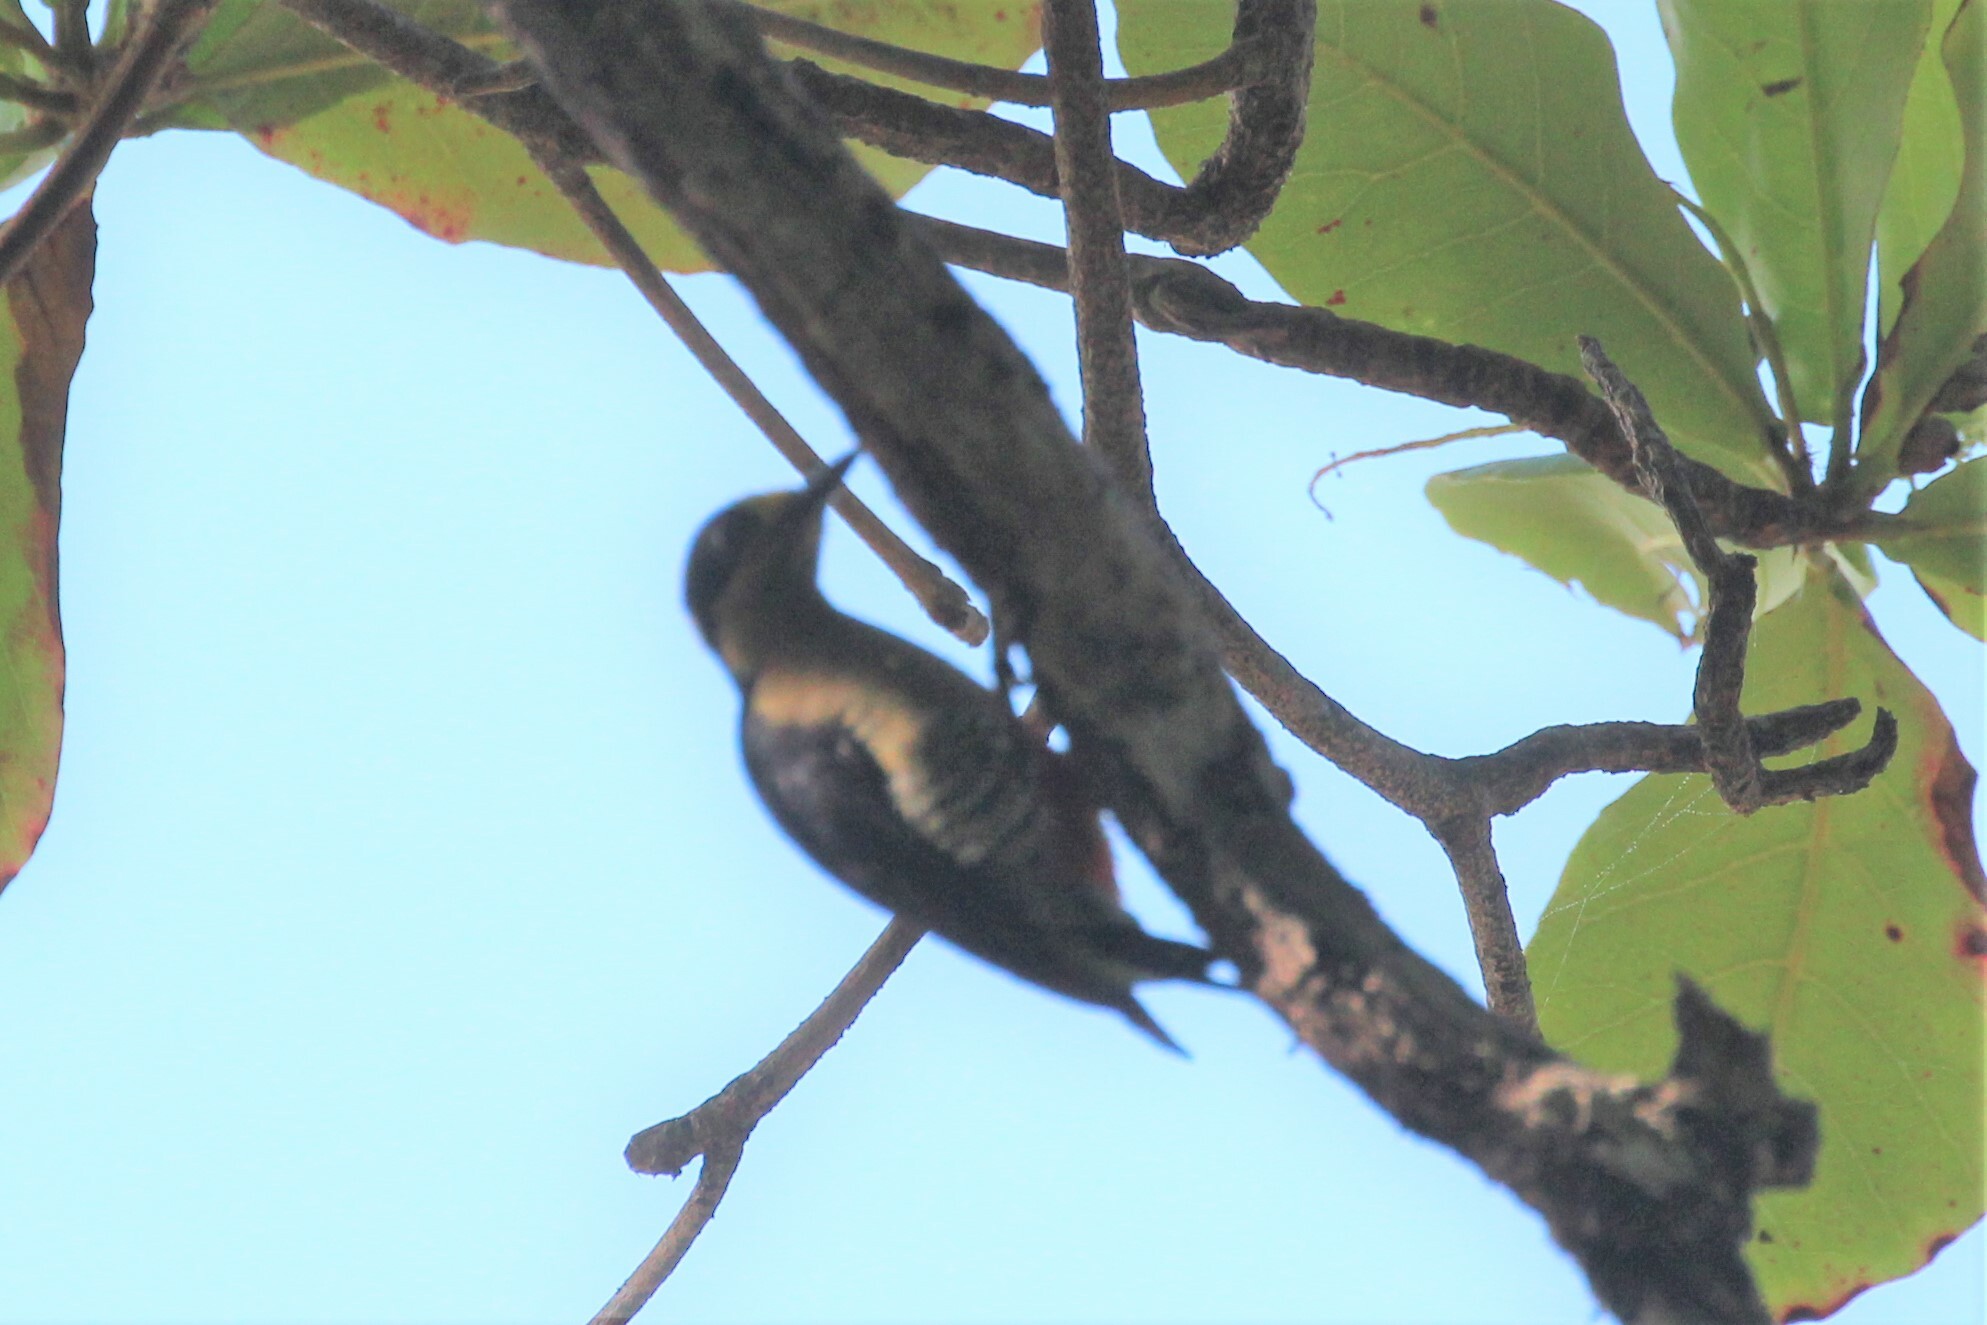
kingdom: Animalia
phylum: Chordata
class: Aves
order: Piciformes
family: Picidae
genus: Melanerpes
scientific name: Melanerpes chrysauchen
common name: Golden-naped woodpecker
